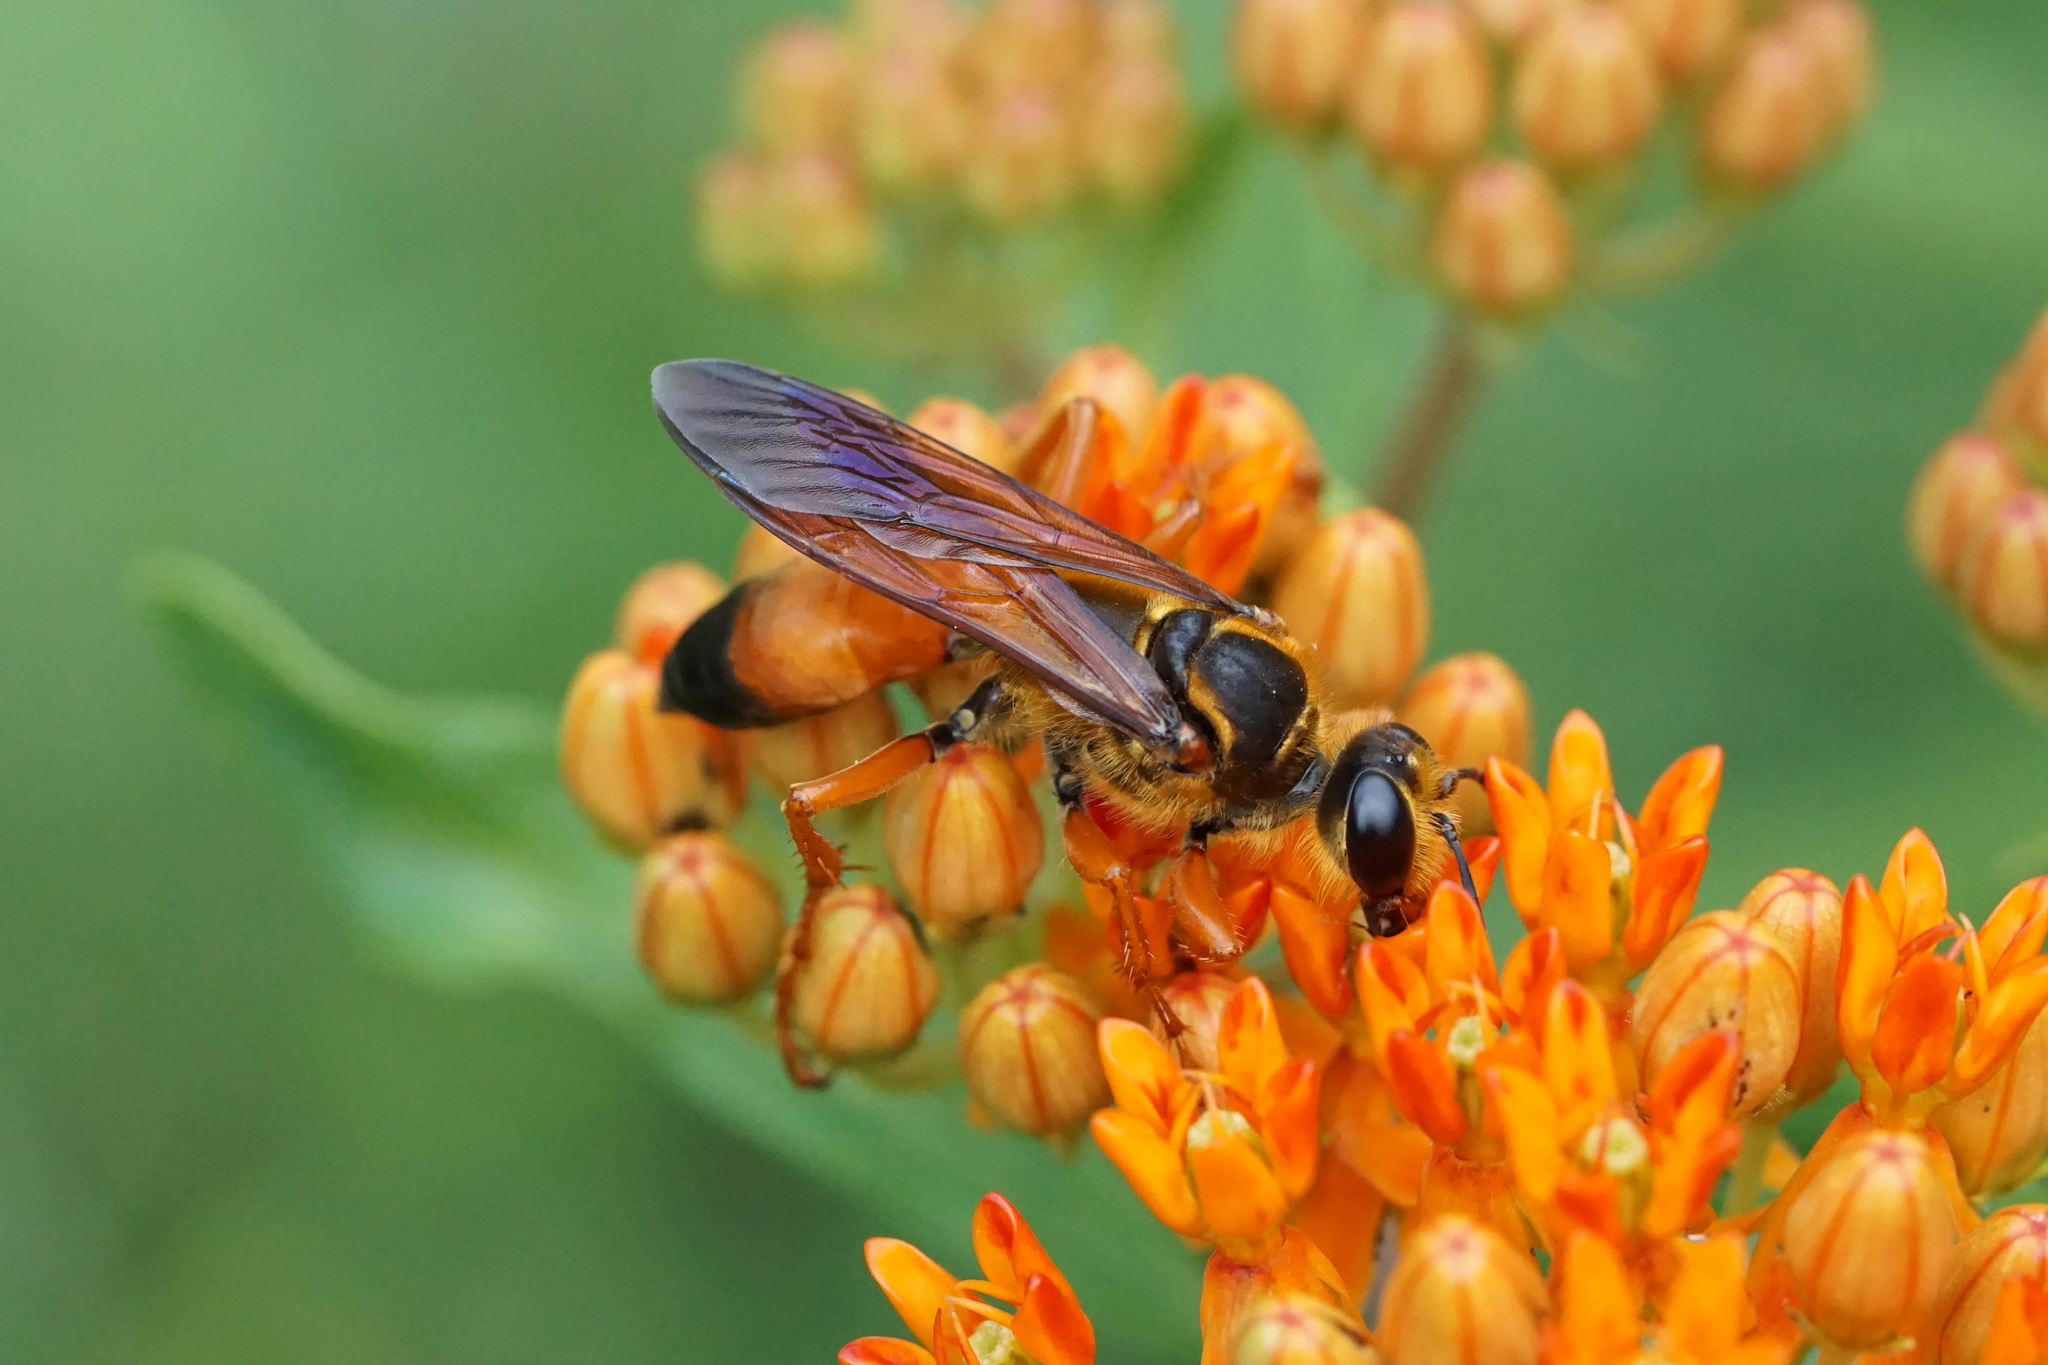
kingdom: Animalia
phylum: Arthropoda
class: Insecta
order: Hymenoptera
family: Sphecidae
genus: Sphex
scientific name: Sphex ichneumoneus
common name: Great golden digger wasp
